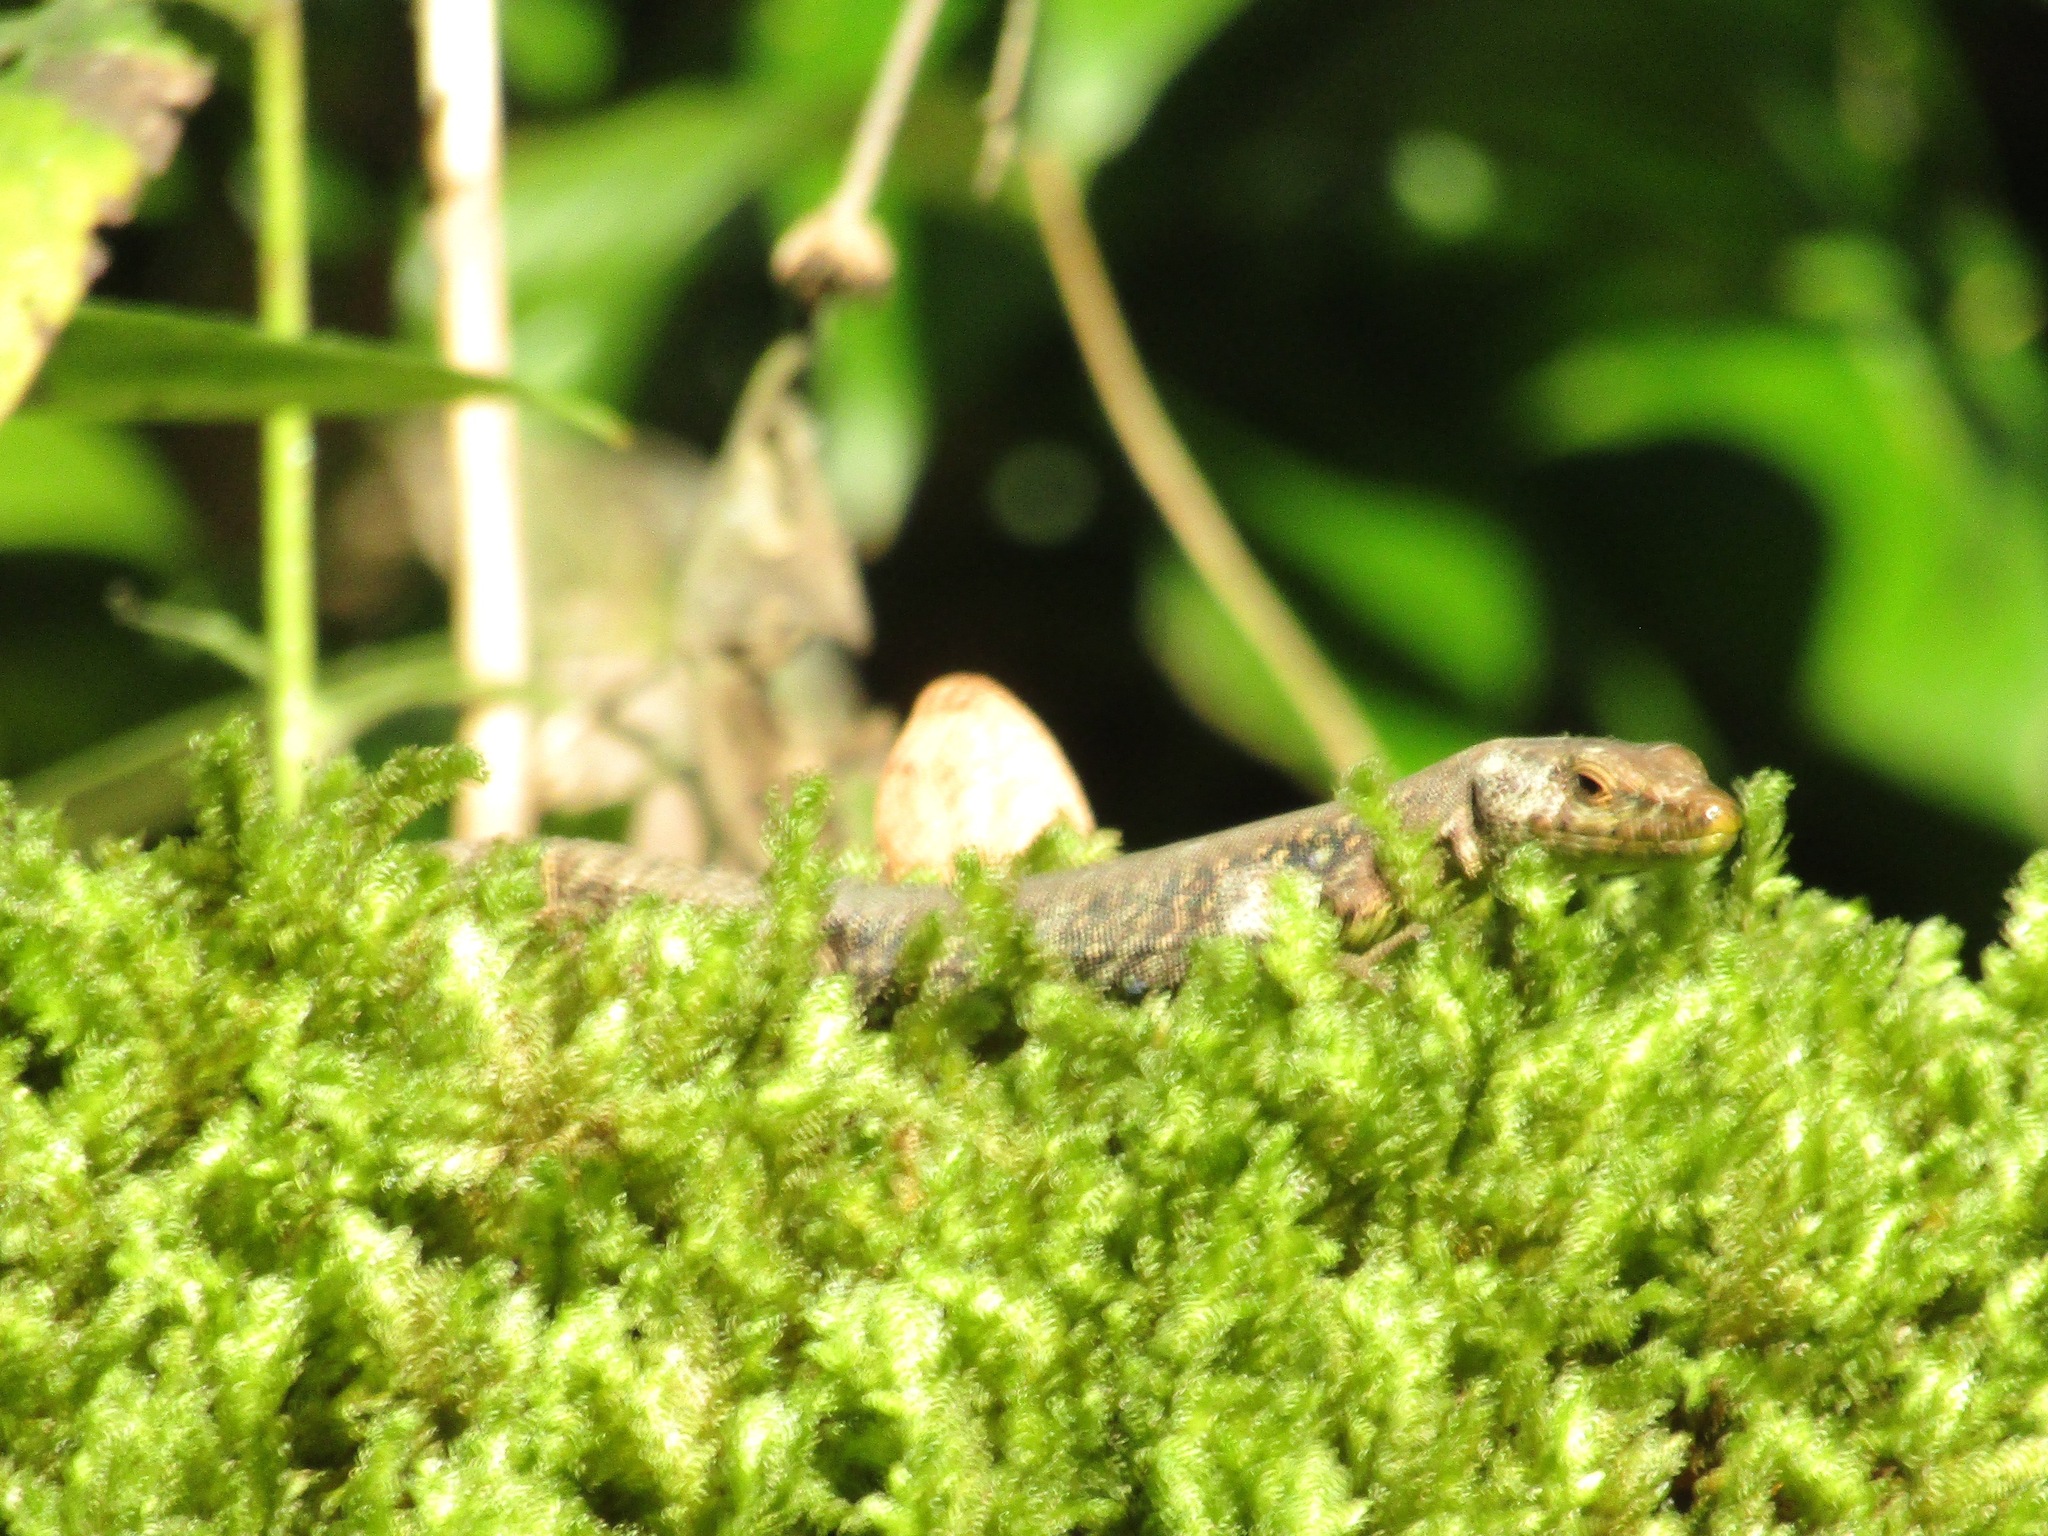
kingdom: Animalia
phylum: Chordata
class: Squamata
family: Lacertidae
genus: Darevskia
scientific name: Darevskia brauneri
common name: Brauner's rock lizard
